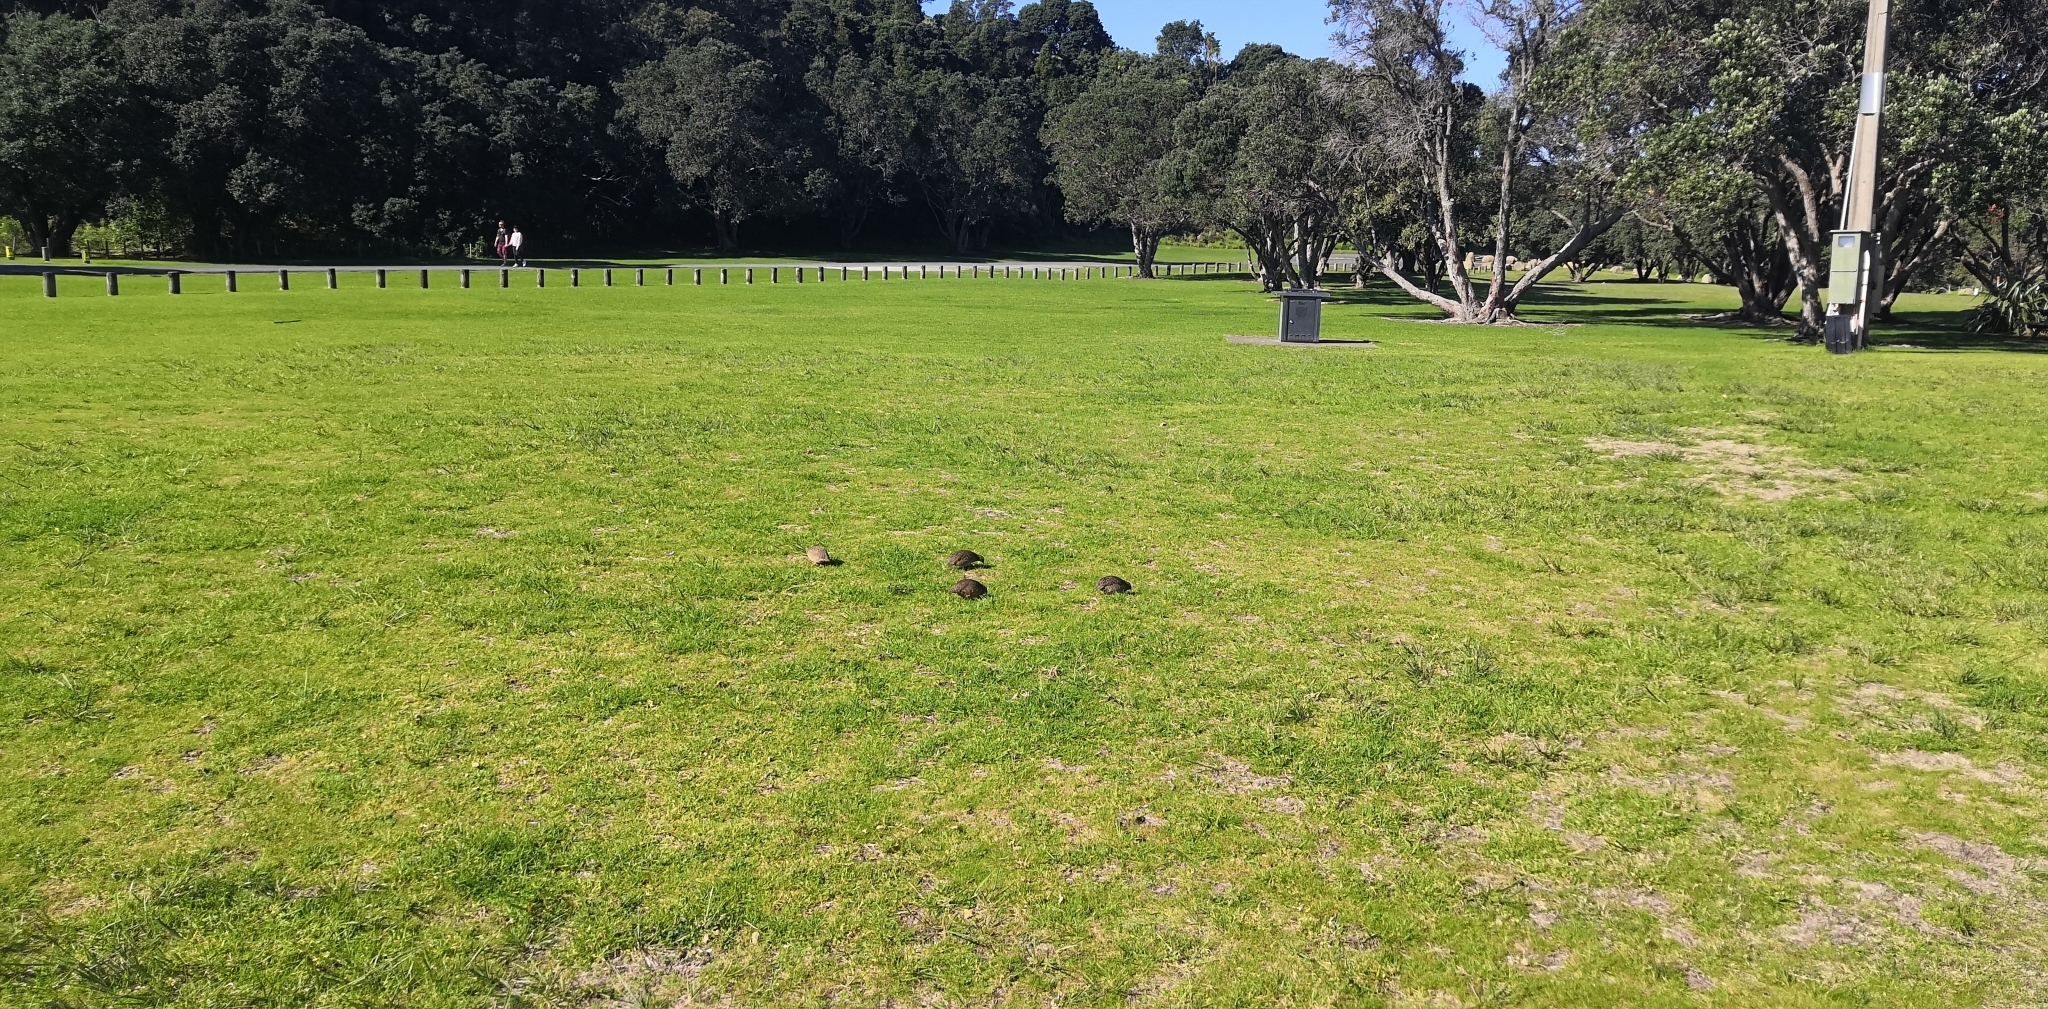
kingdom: Animalia
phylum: Chordata
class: Aves
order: Galliformes
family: Phasianidae
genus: Synoicus
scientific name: Synoicus ypsilophorus
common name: Brown quail
